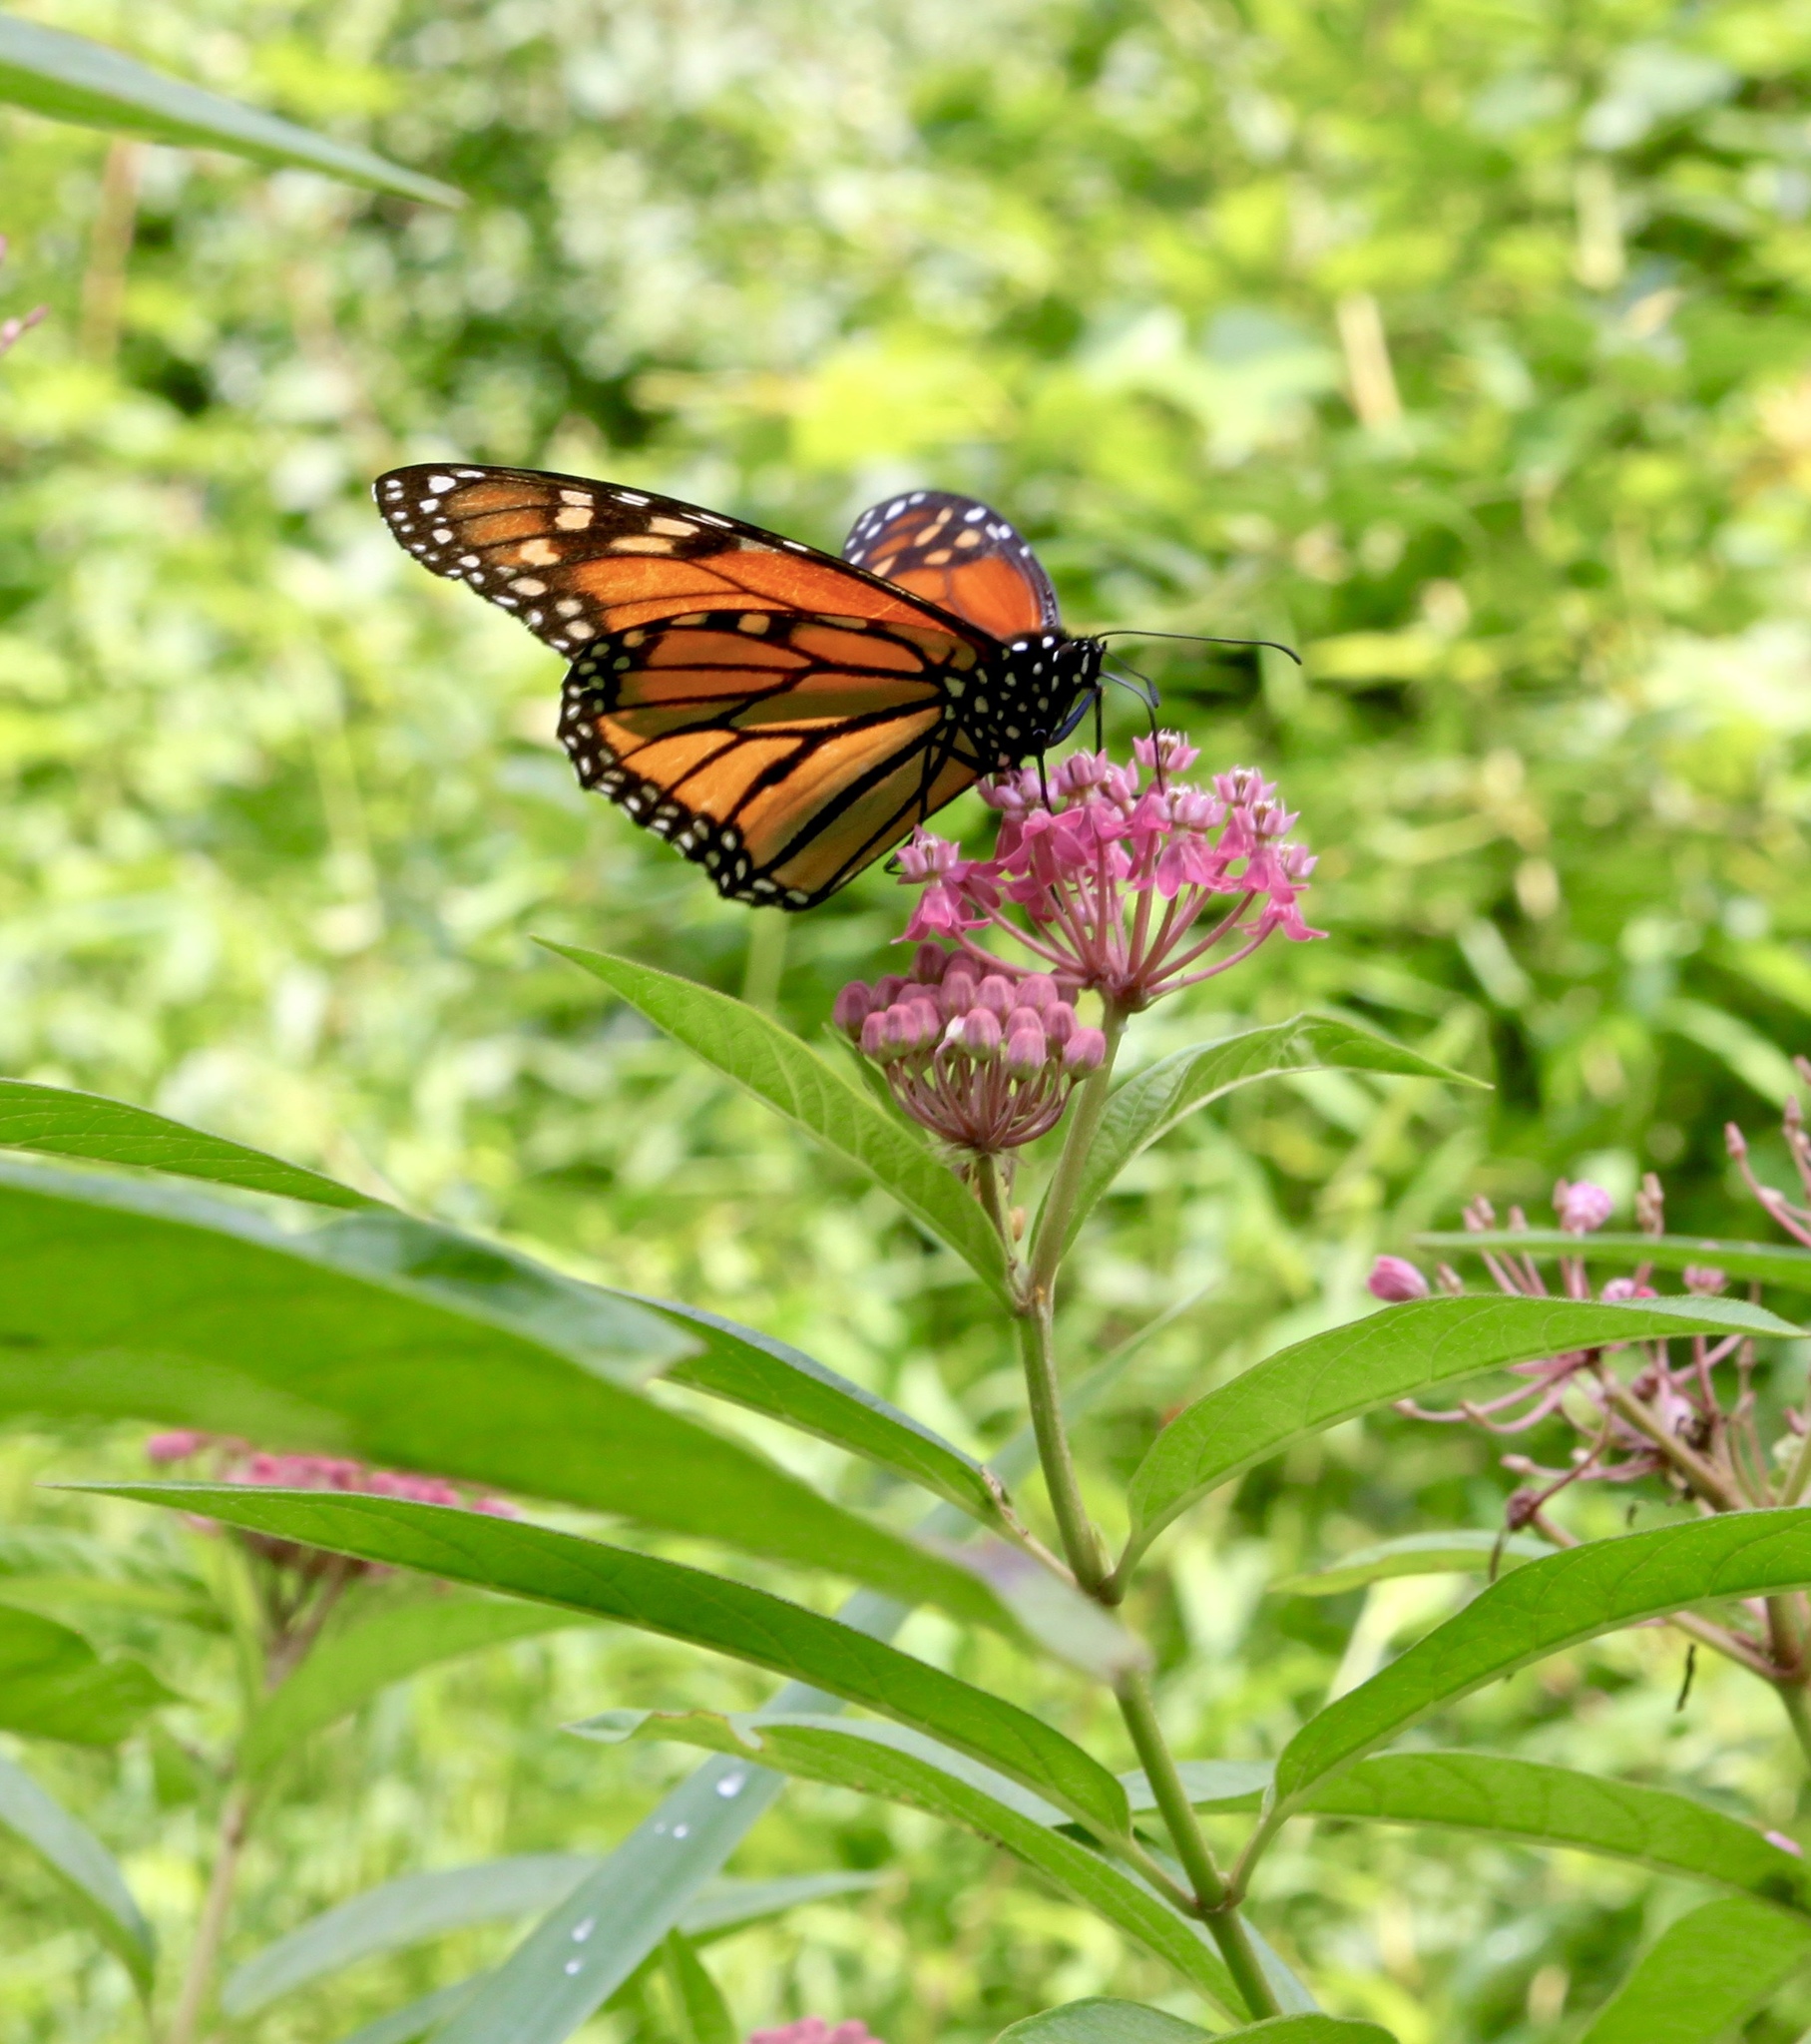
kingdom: Animalia
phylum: Arthropoda
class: Insecta
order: Lepidoptera
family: Nymphalidae
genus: Danaus
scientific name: Danaus plexippus
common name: Monarch
